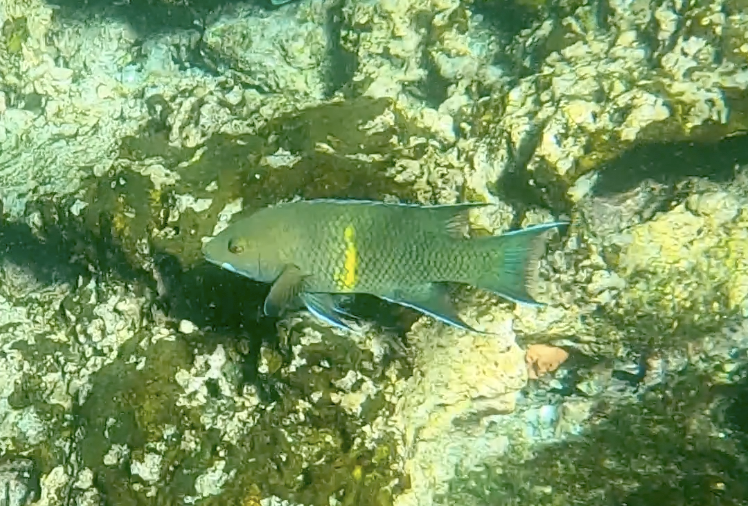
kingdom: Animalia
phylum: Chordata
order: Perciformes
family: Labridae
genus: Bodianus
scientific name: Bodianus diplotaenia
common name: Mexican hogfish
